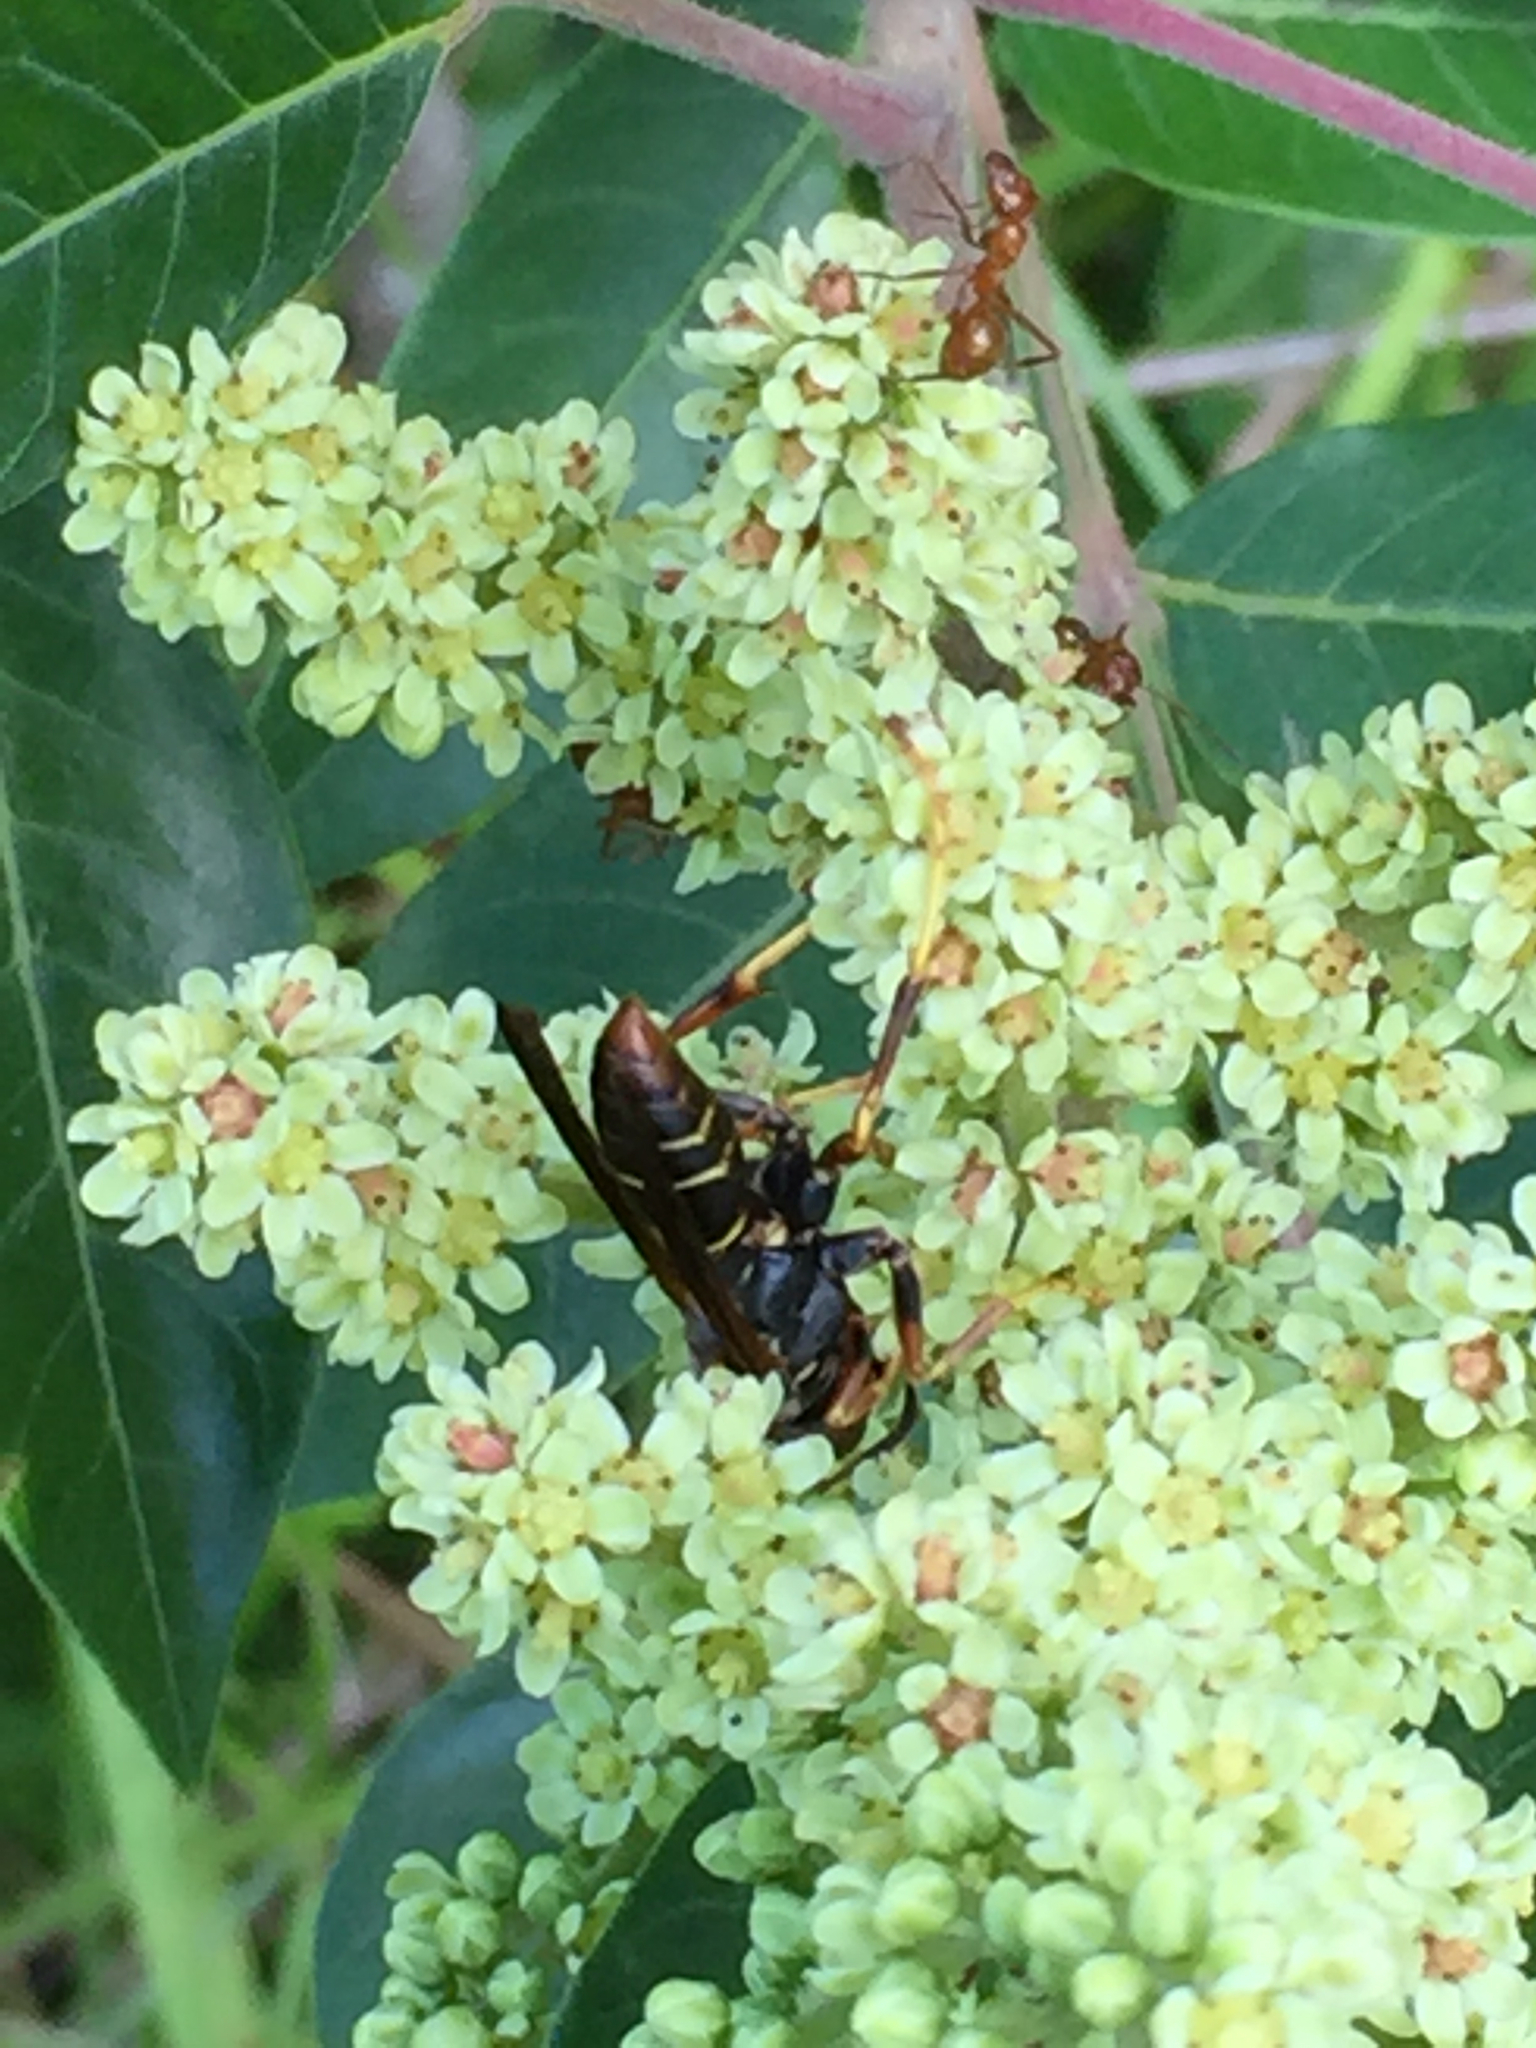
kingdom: Plantae
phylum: Tracheophyta
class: Magnoliopsida
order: Sapindales
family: Anacardiaceae
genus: Rhus
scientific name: Rhus copallina
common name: Shining sumac
